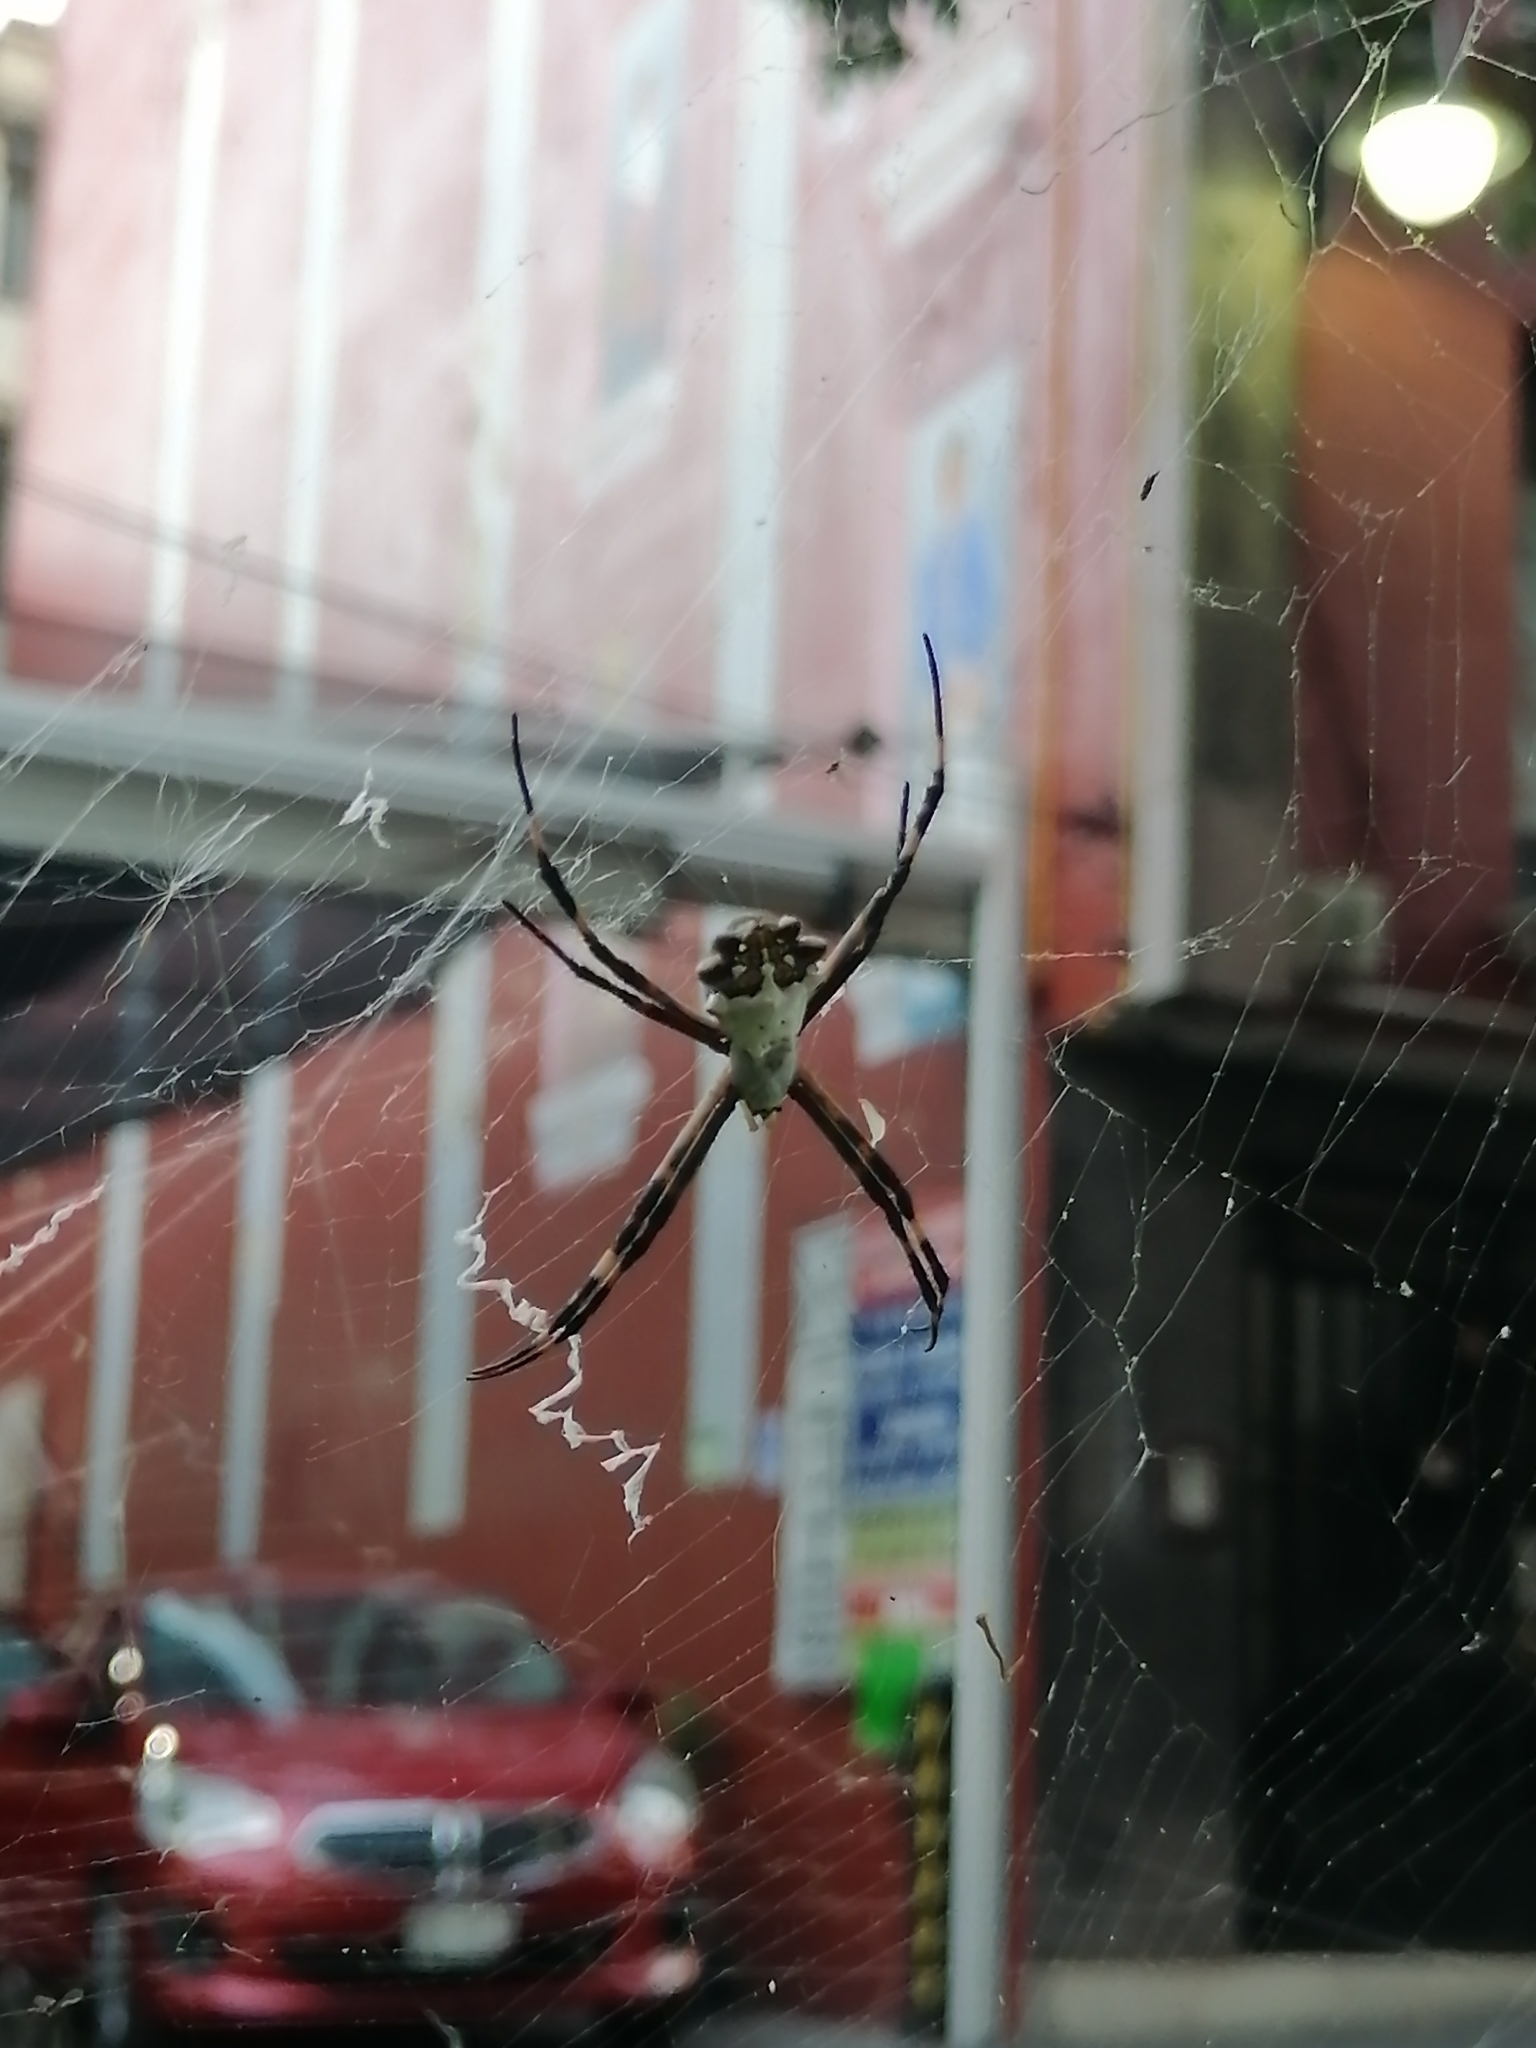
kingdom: Animalia
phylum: Arthropoda
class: Arachnida
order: Araneae
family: Araneidae
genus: Argiope
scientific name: Argiope argentata
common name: Orb weavers
